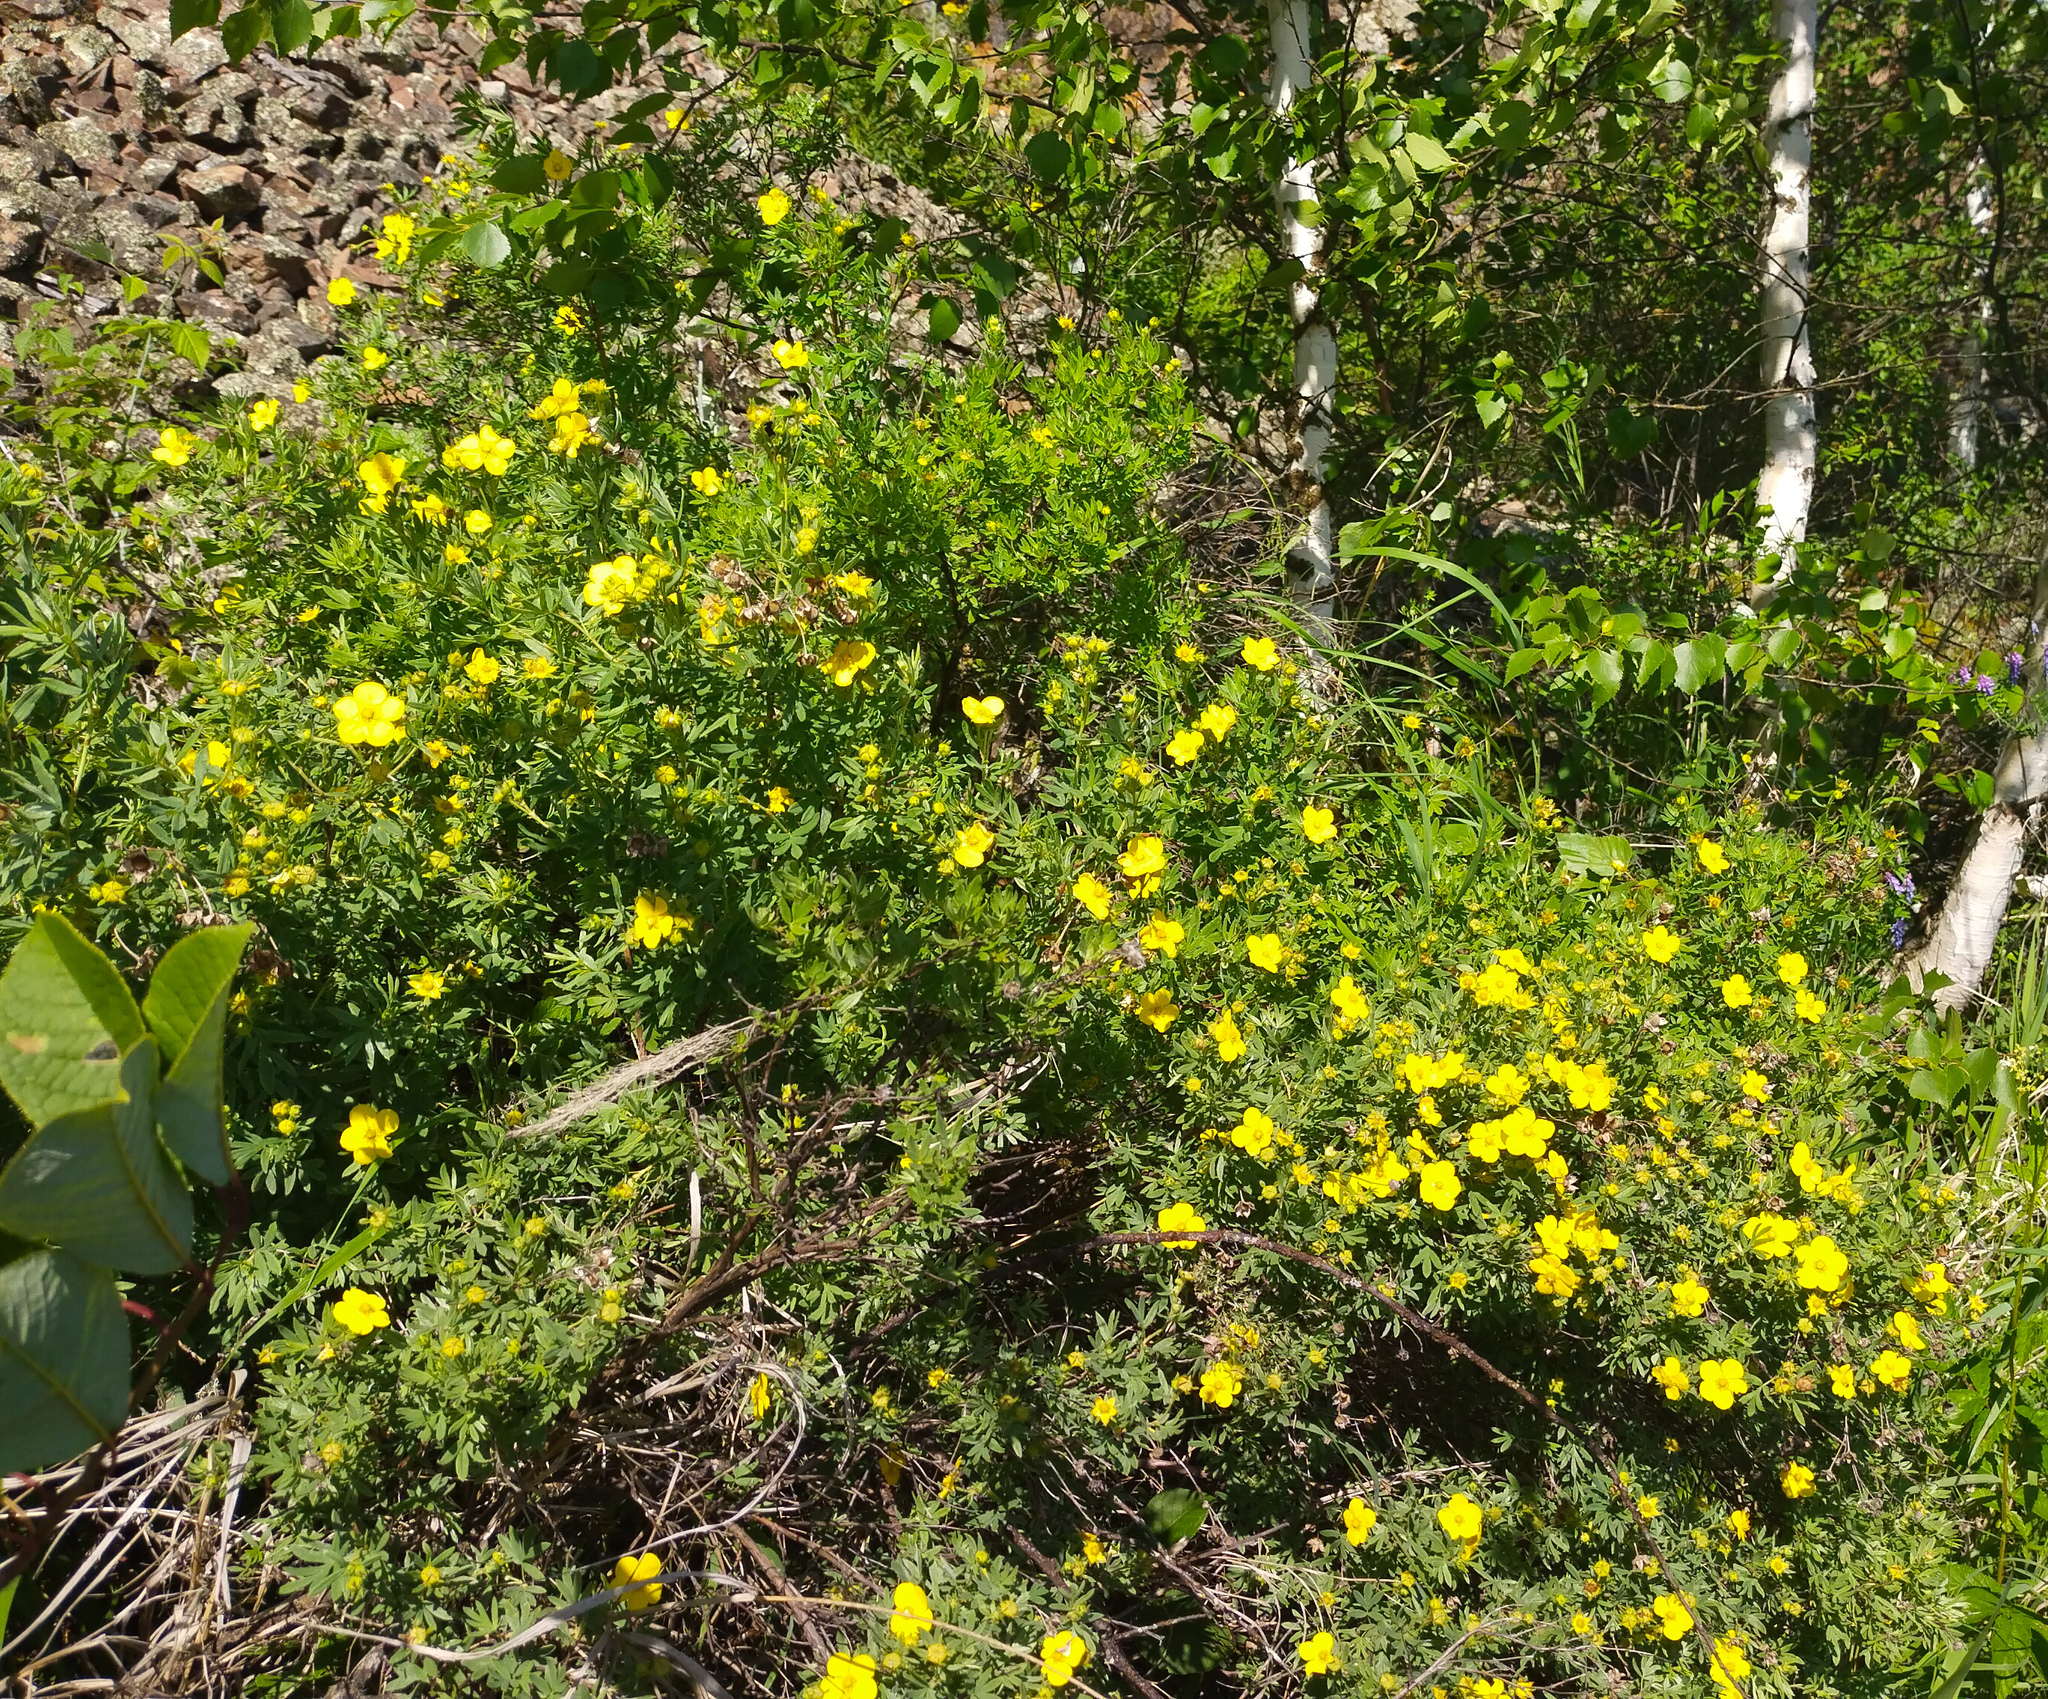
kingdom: Plantae
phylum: Tracheophyta
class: Magnoliopsida
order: Rosales
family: Rosaceae
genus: Dasiphora
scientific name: Dasiphora fruticosa
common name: Shrubby cinquefoil
